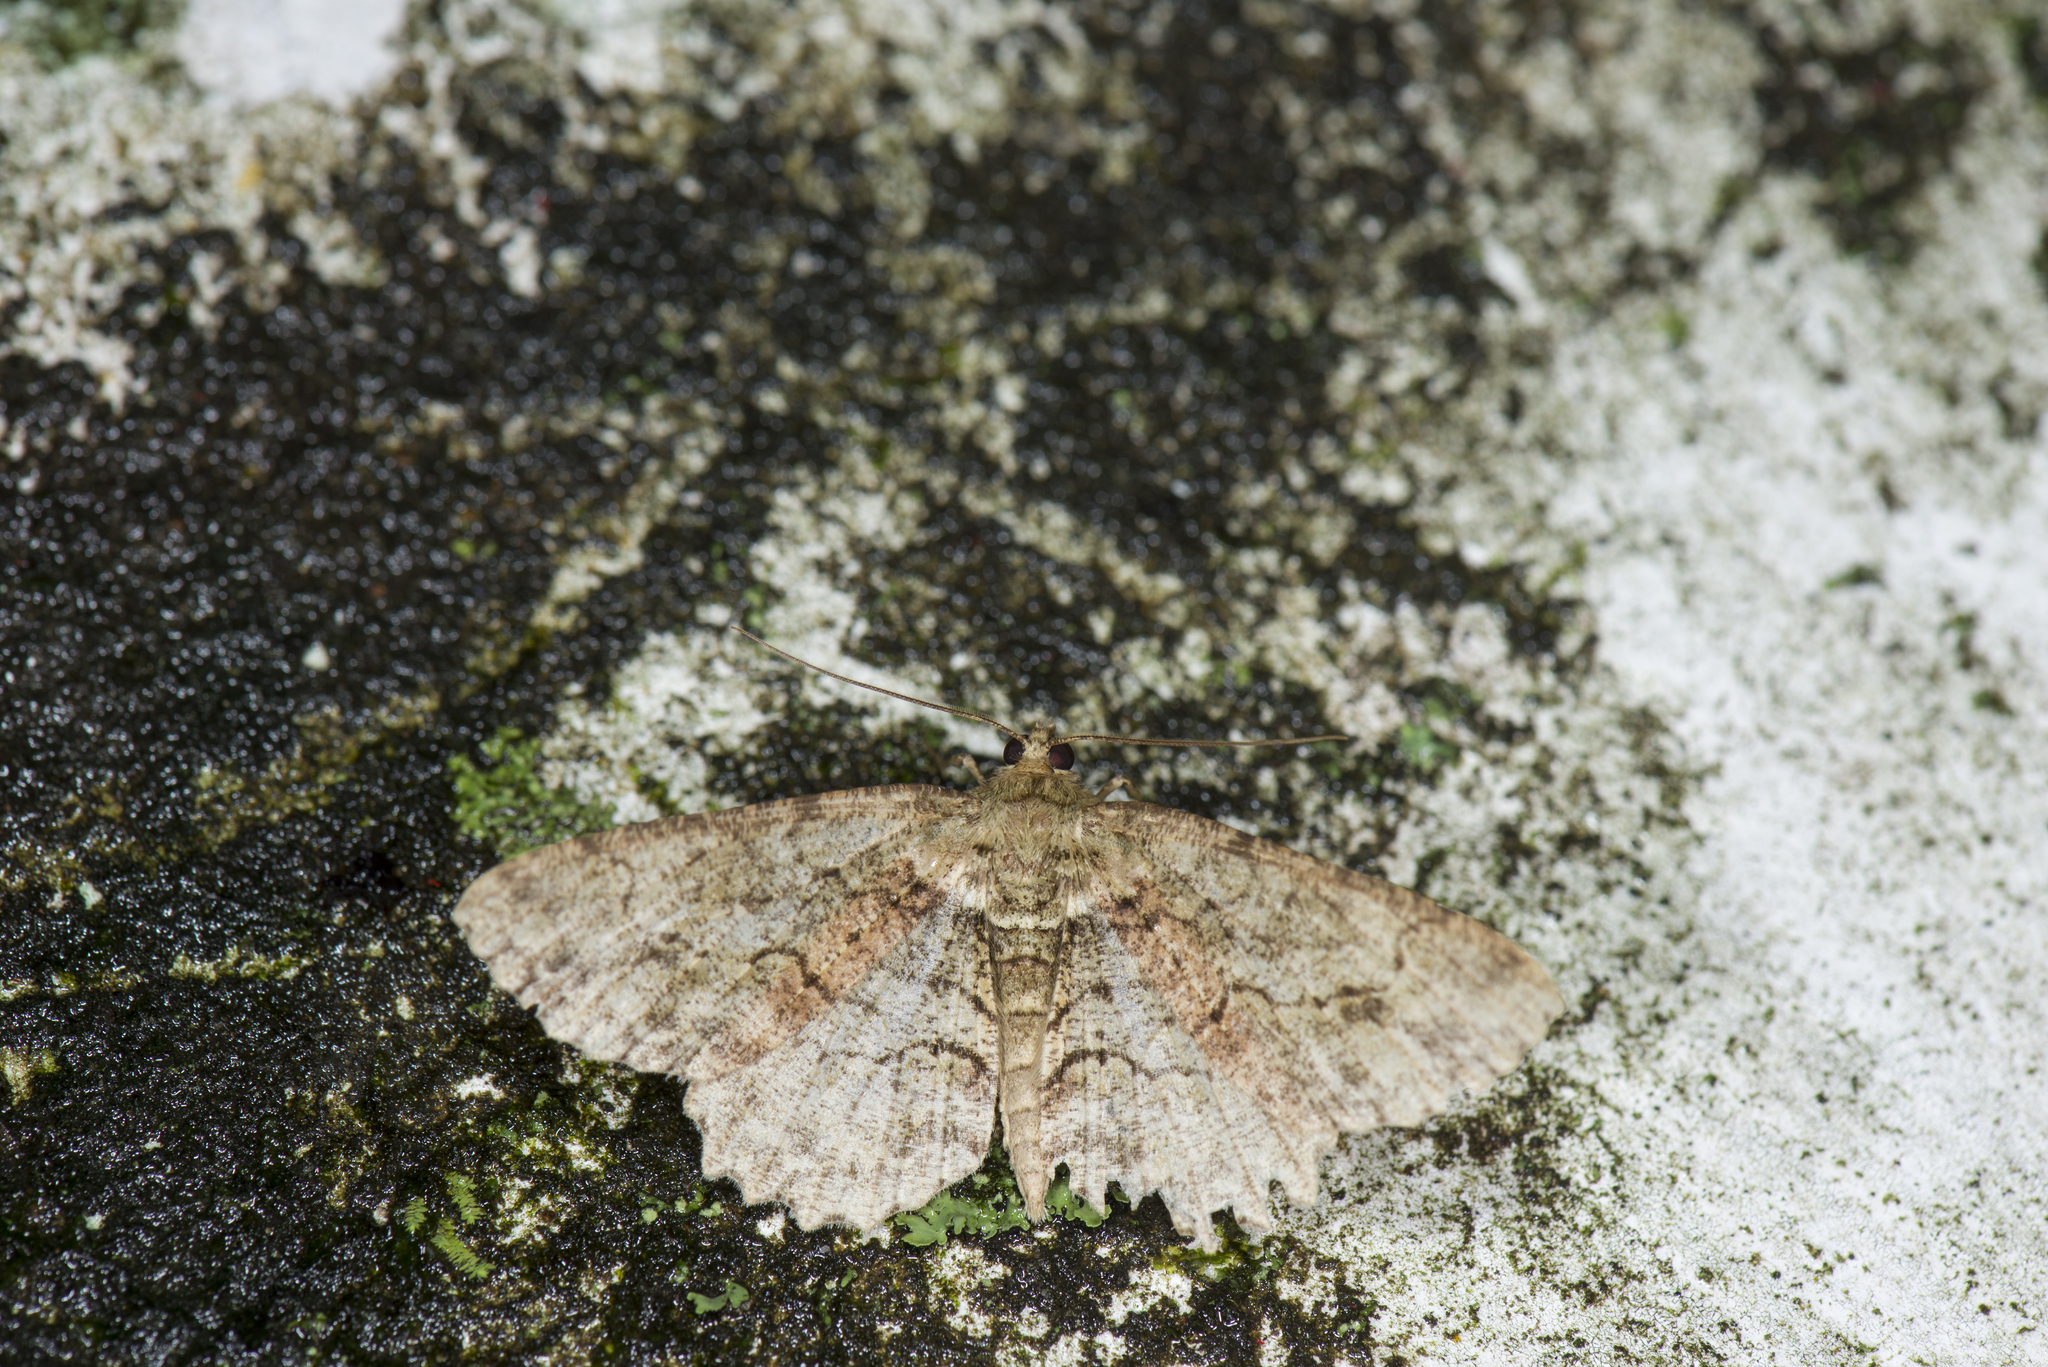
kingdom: Animalia
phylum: Arthropoda
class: Insecta
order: Lepidoptera
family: Geometridae
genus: Paradarisa
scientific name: Paradarisa chloauges
